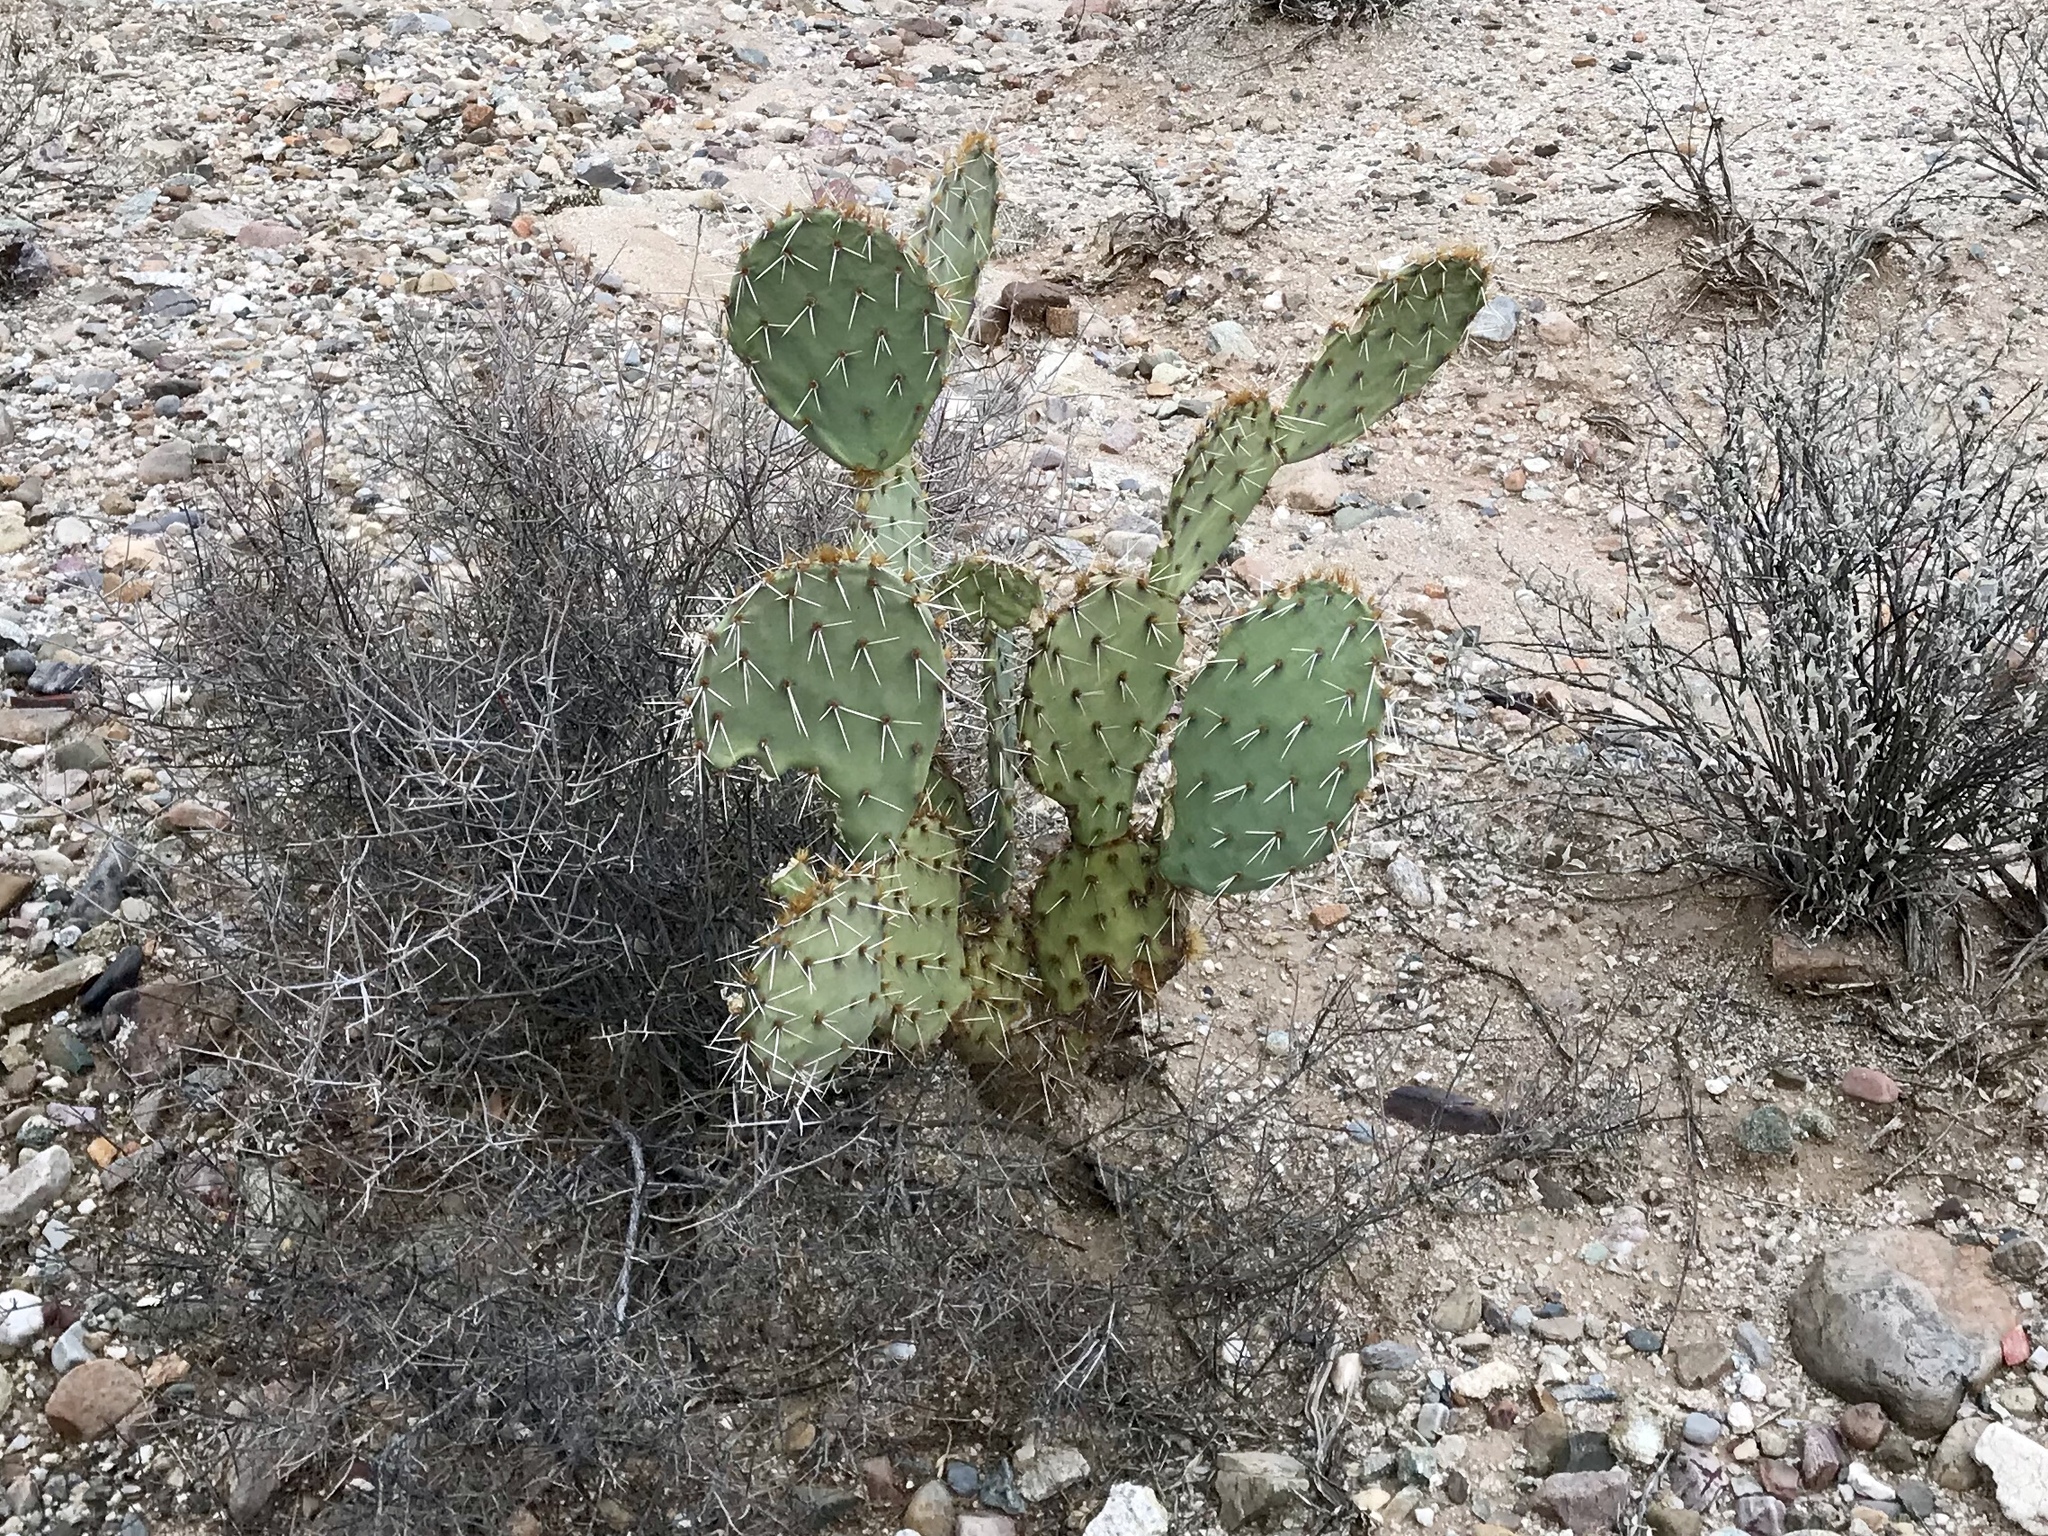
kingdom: Plantae
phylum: Tracheophyta
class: Magnoliopsida
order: Caryophyllales
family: Cactaceae
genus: Opuntia
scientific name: Opuntia engelmannii
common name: Cactus-apple
